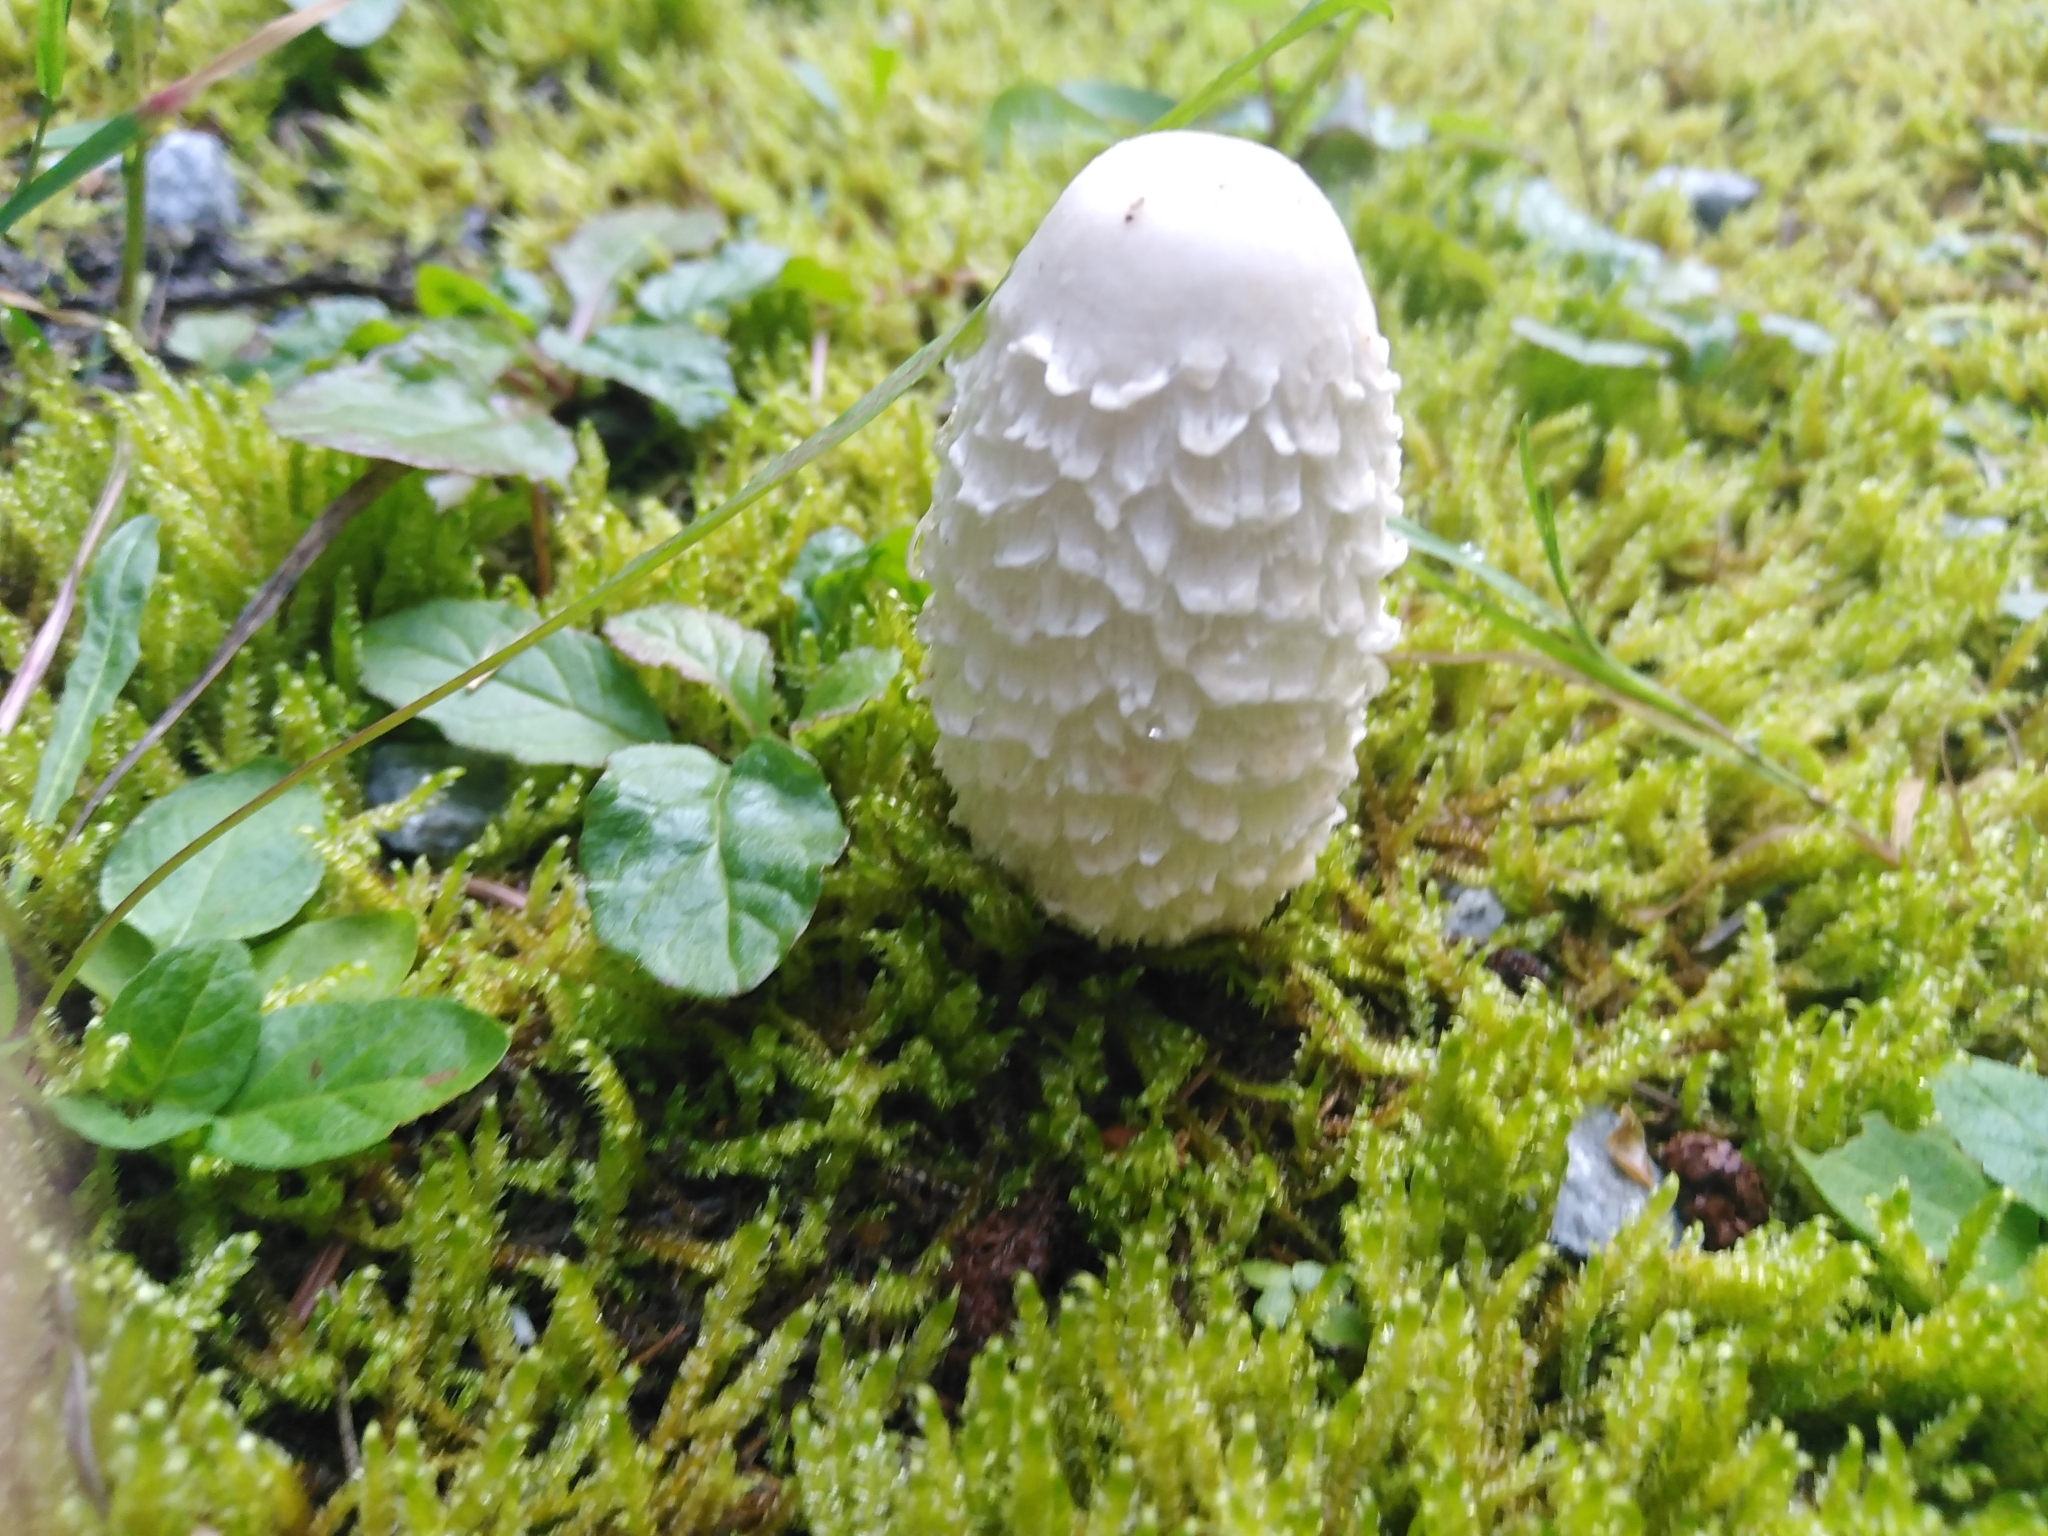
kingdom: Fungi
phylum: Basidiomycota
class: Agaricomycetes
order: Agaricales
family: Agaricaceae
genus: Coprinus
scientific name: Coprinus comatus
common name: Lawyer's wig
